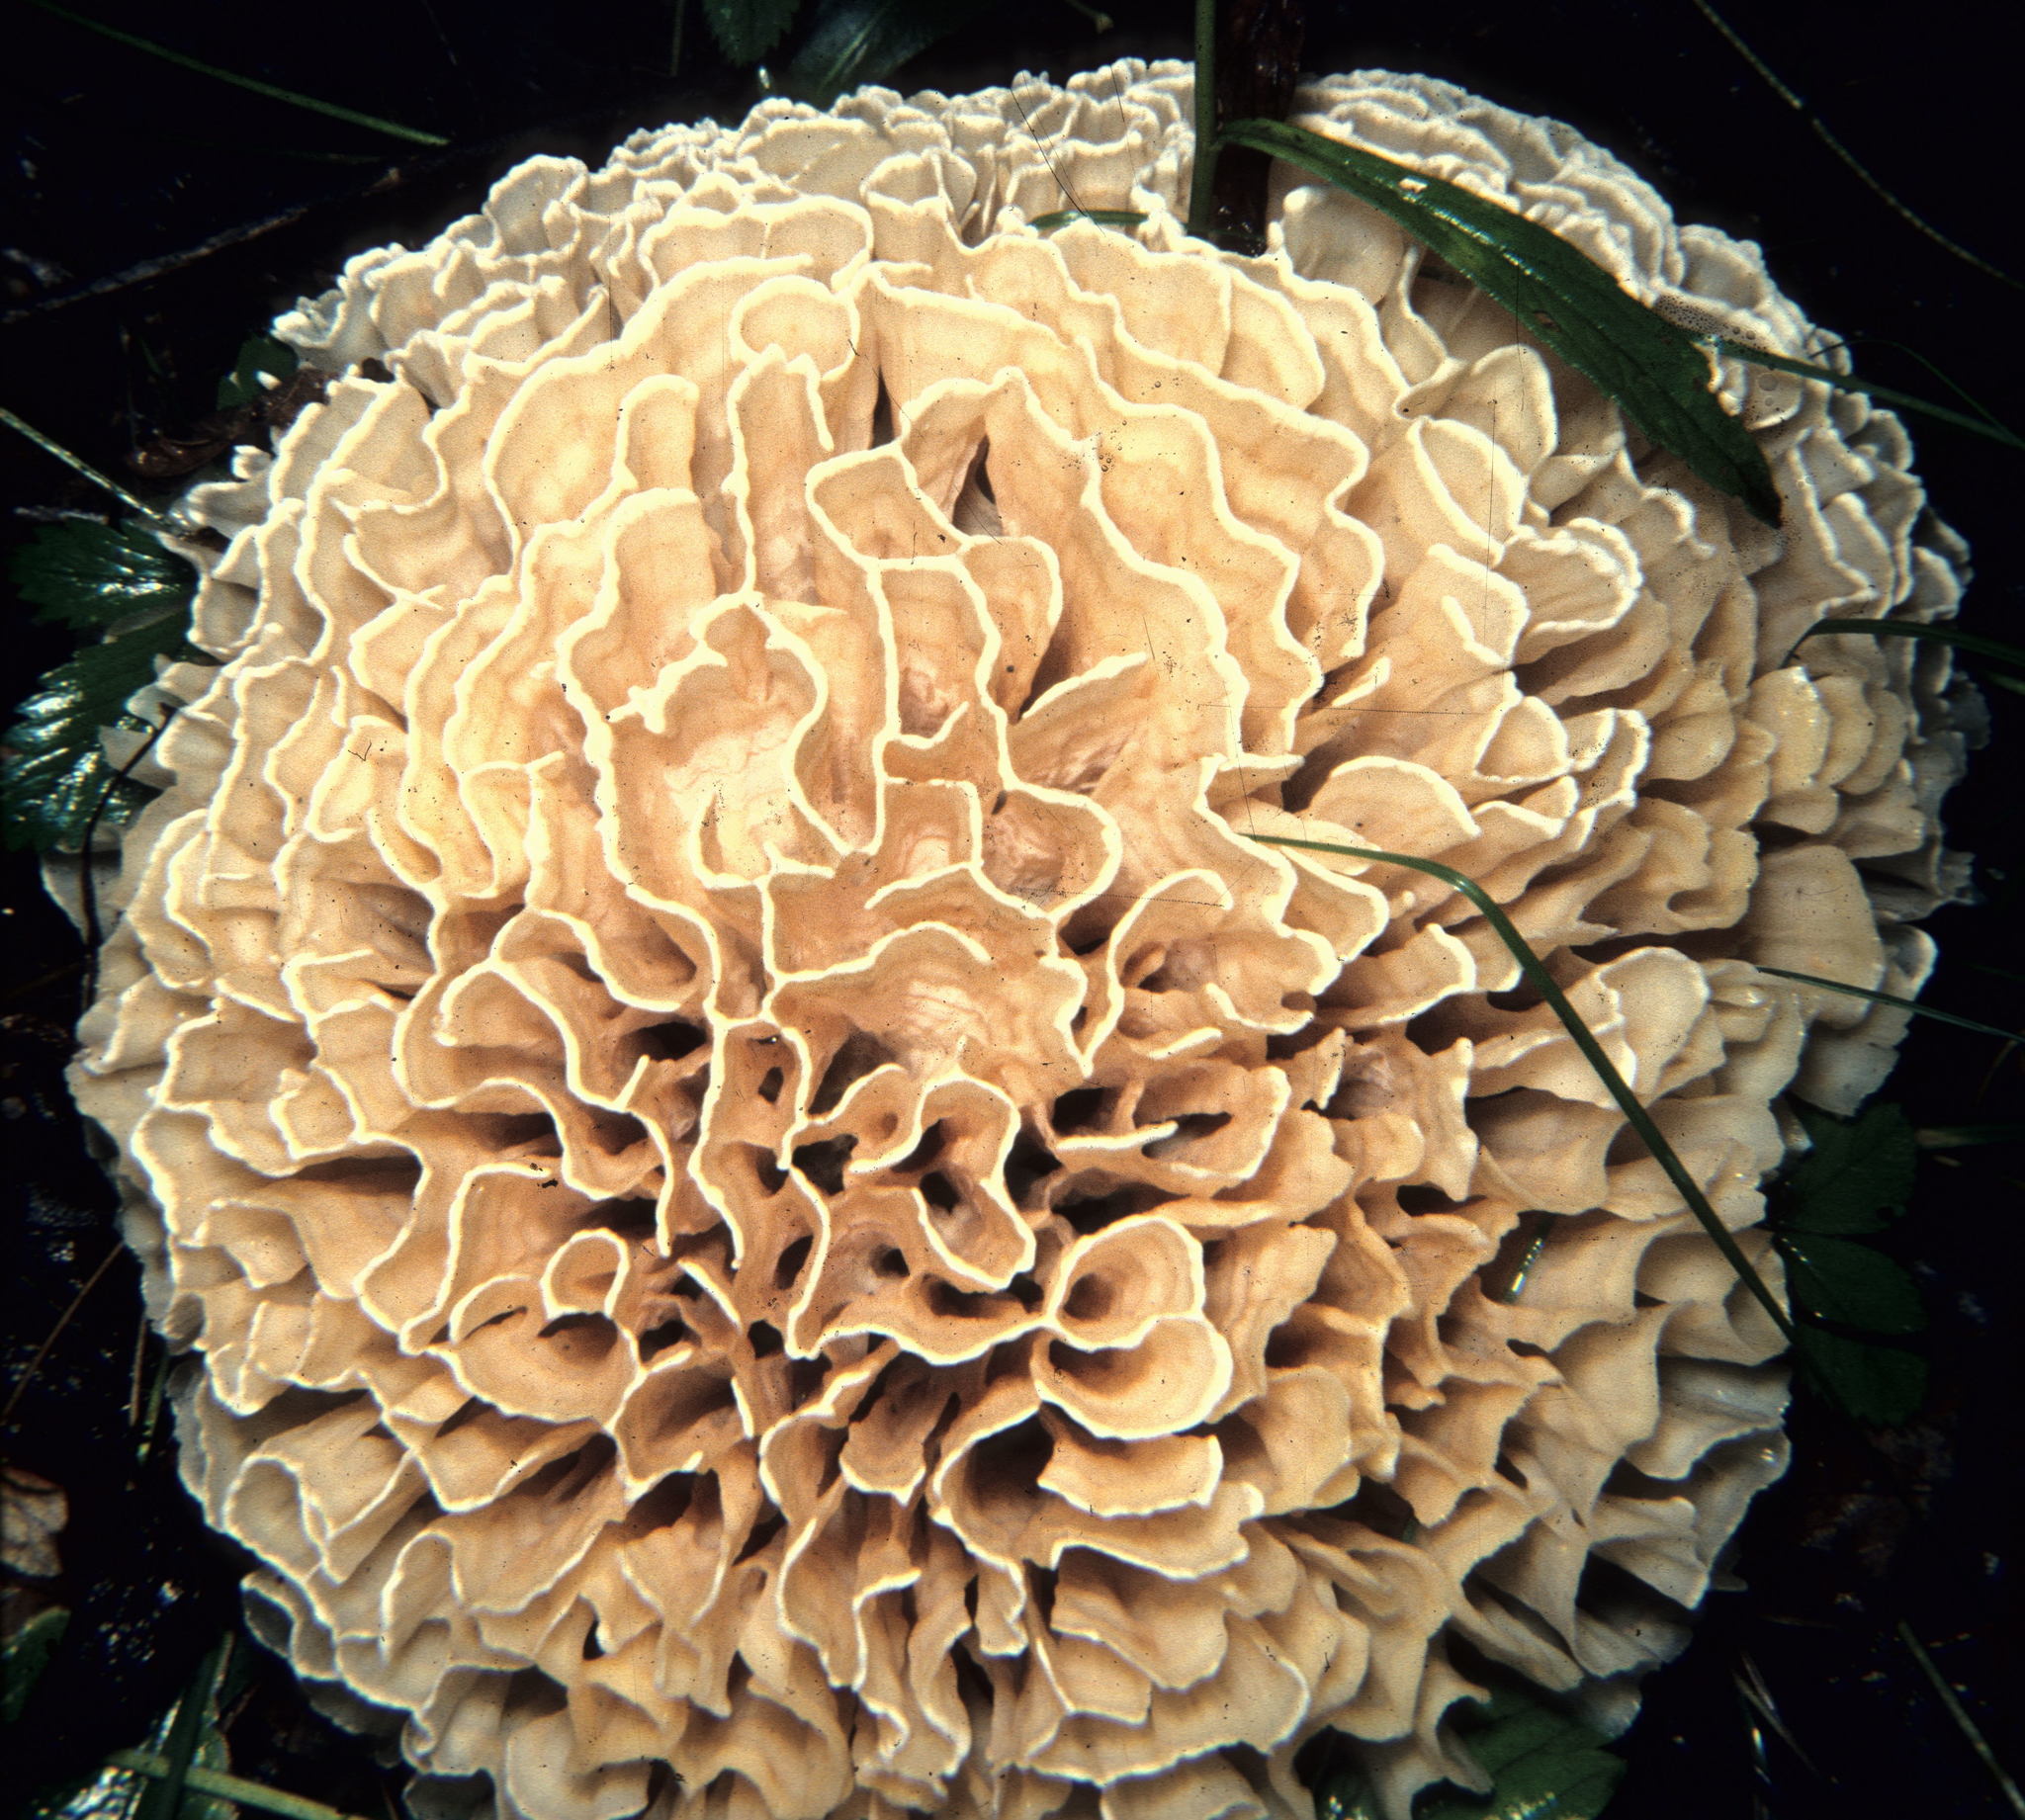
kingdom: Fungi
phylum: Basidiomycota
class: Agaricomycetes
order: Polyporales
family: Sparassidaceae
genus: Sparassis
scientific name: Sparassis spathulata
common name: Eastern cauliflower mushroom
